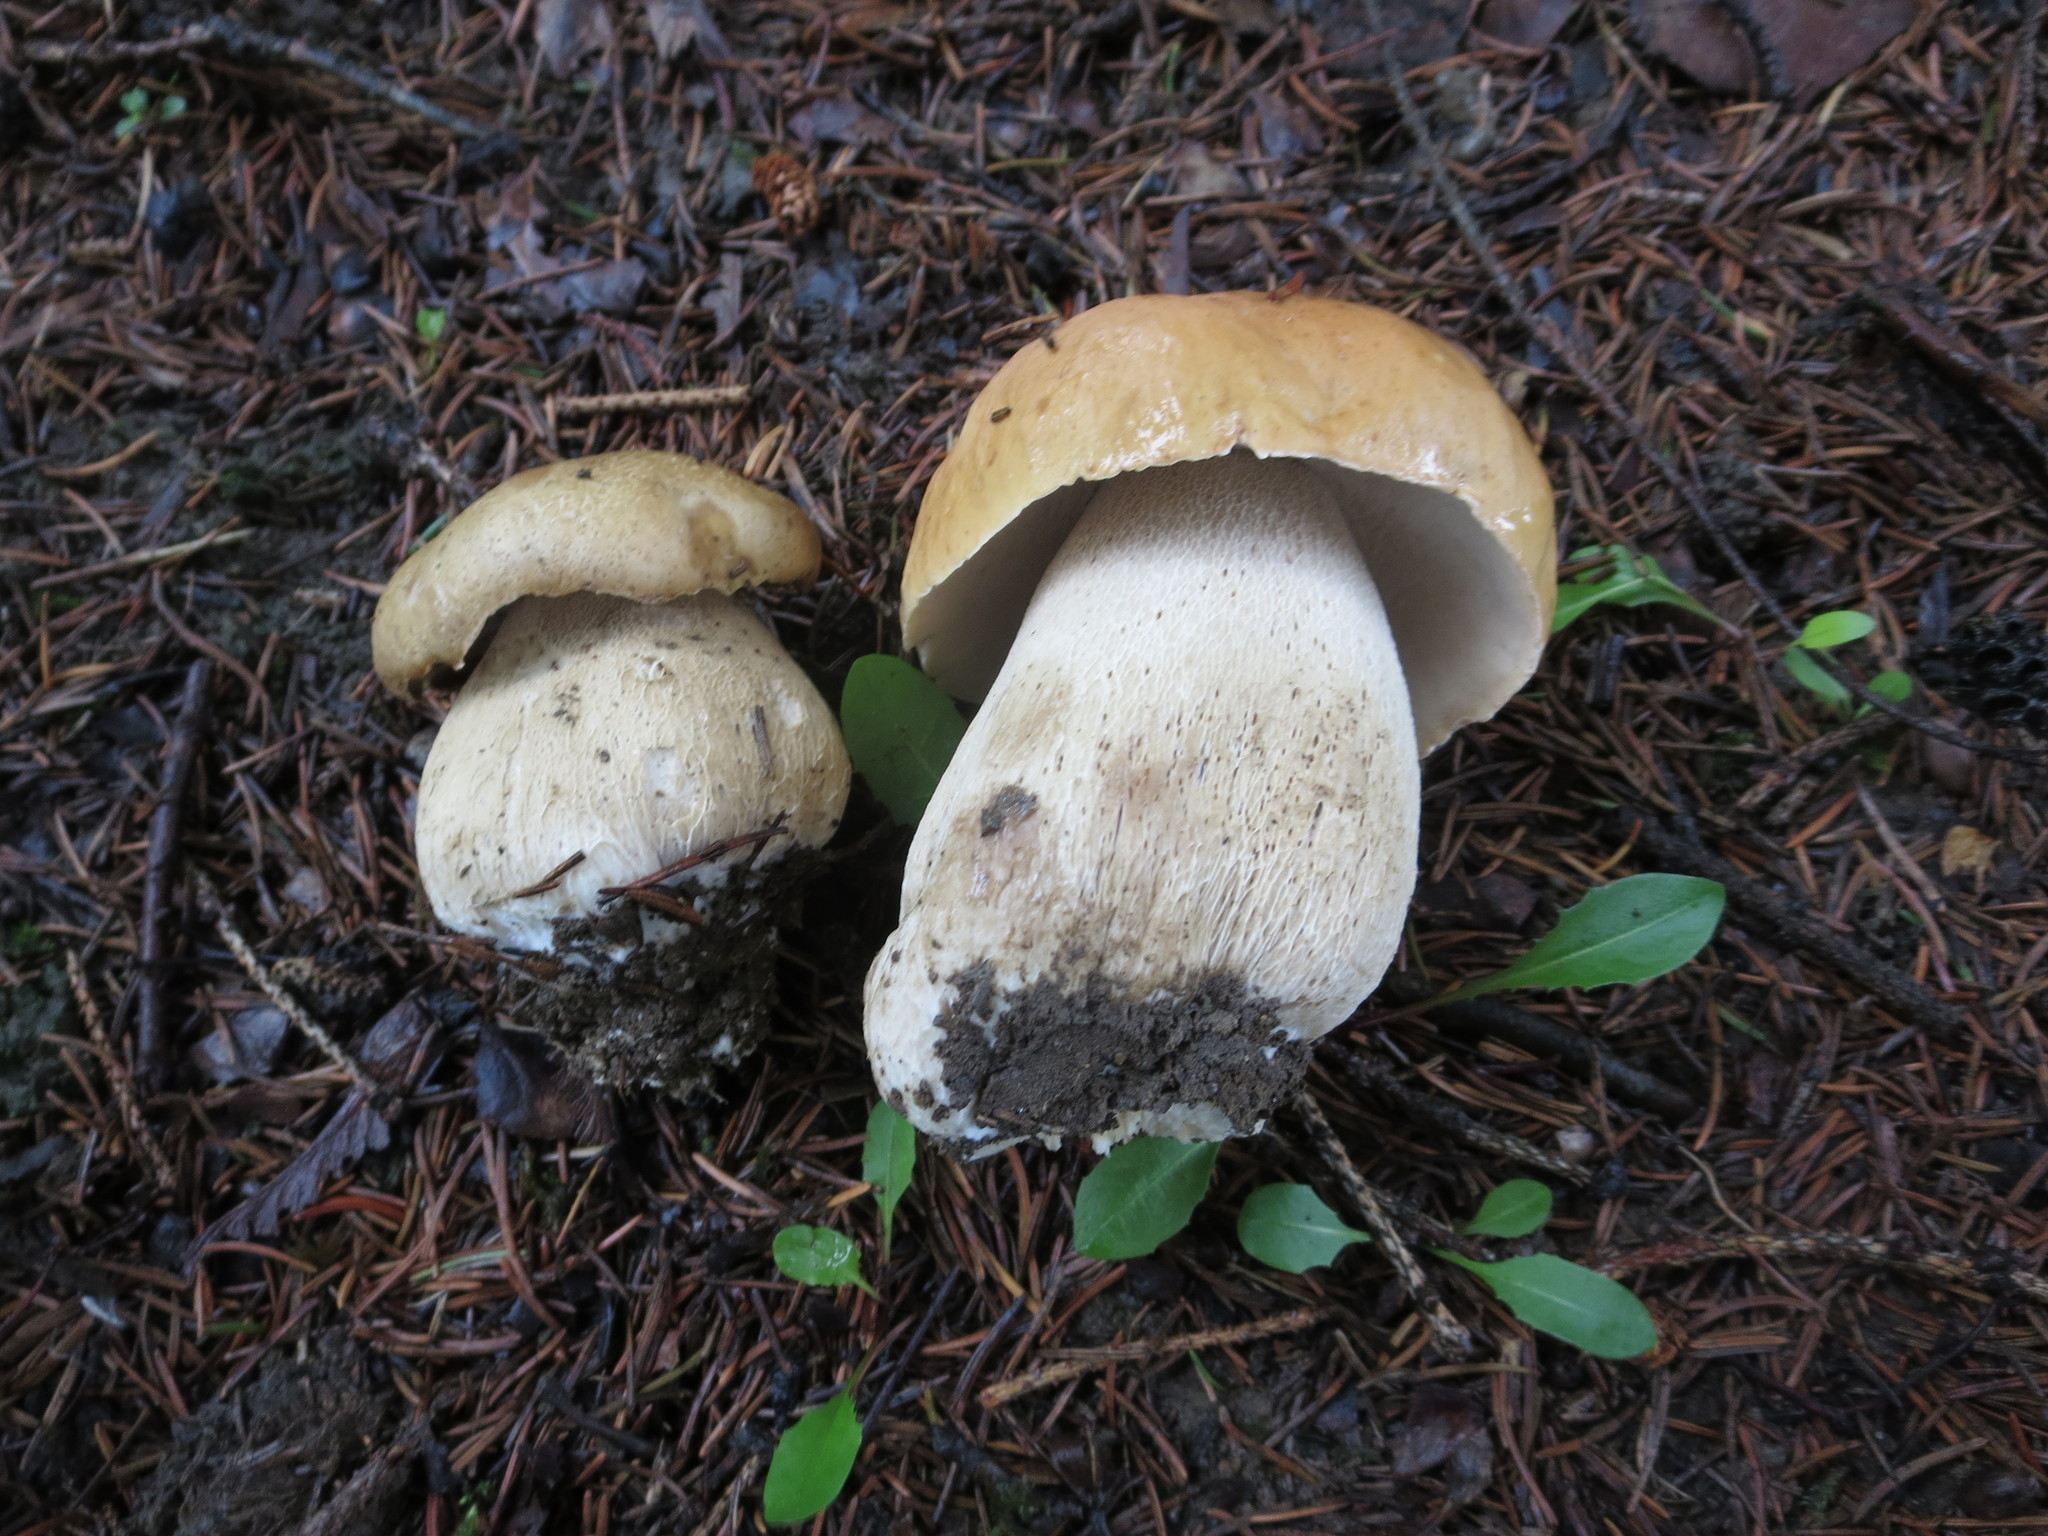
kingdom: Fungi
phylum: Basidiomycota
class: Agaricomycetes
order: Boletales
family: Boletaceae
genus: Boletus
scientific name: Boletus edulis
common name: Cep
